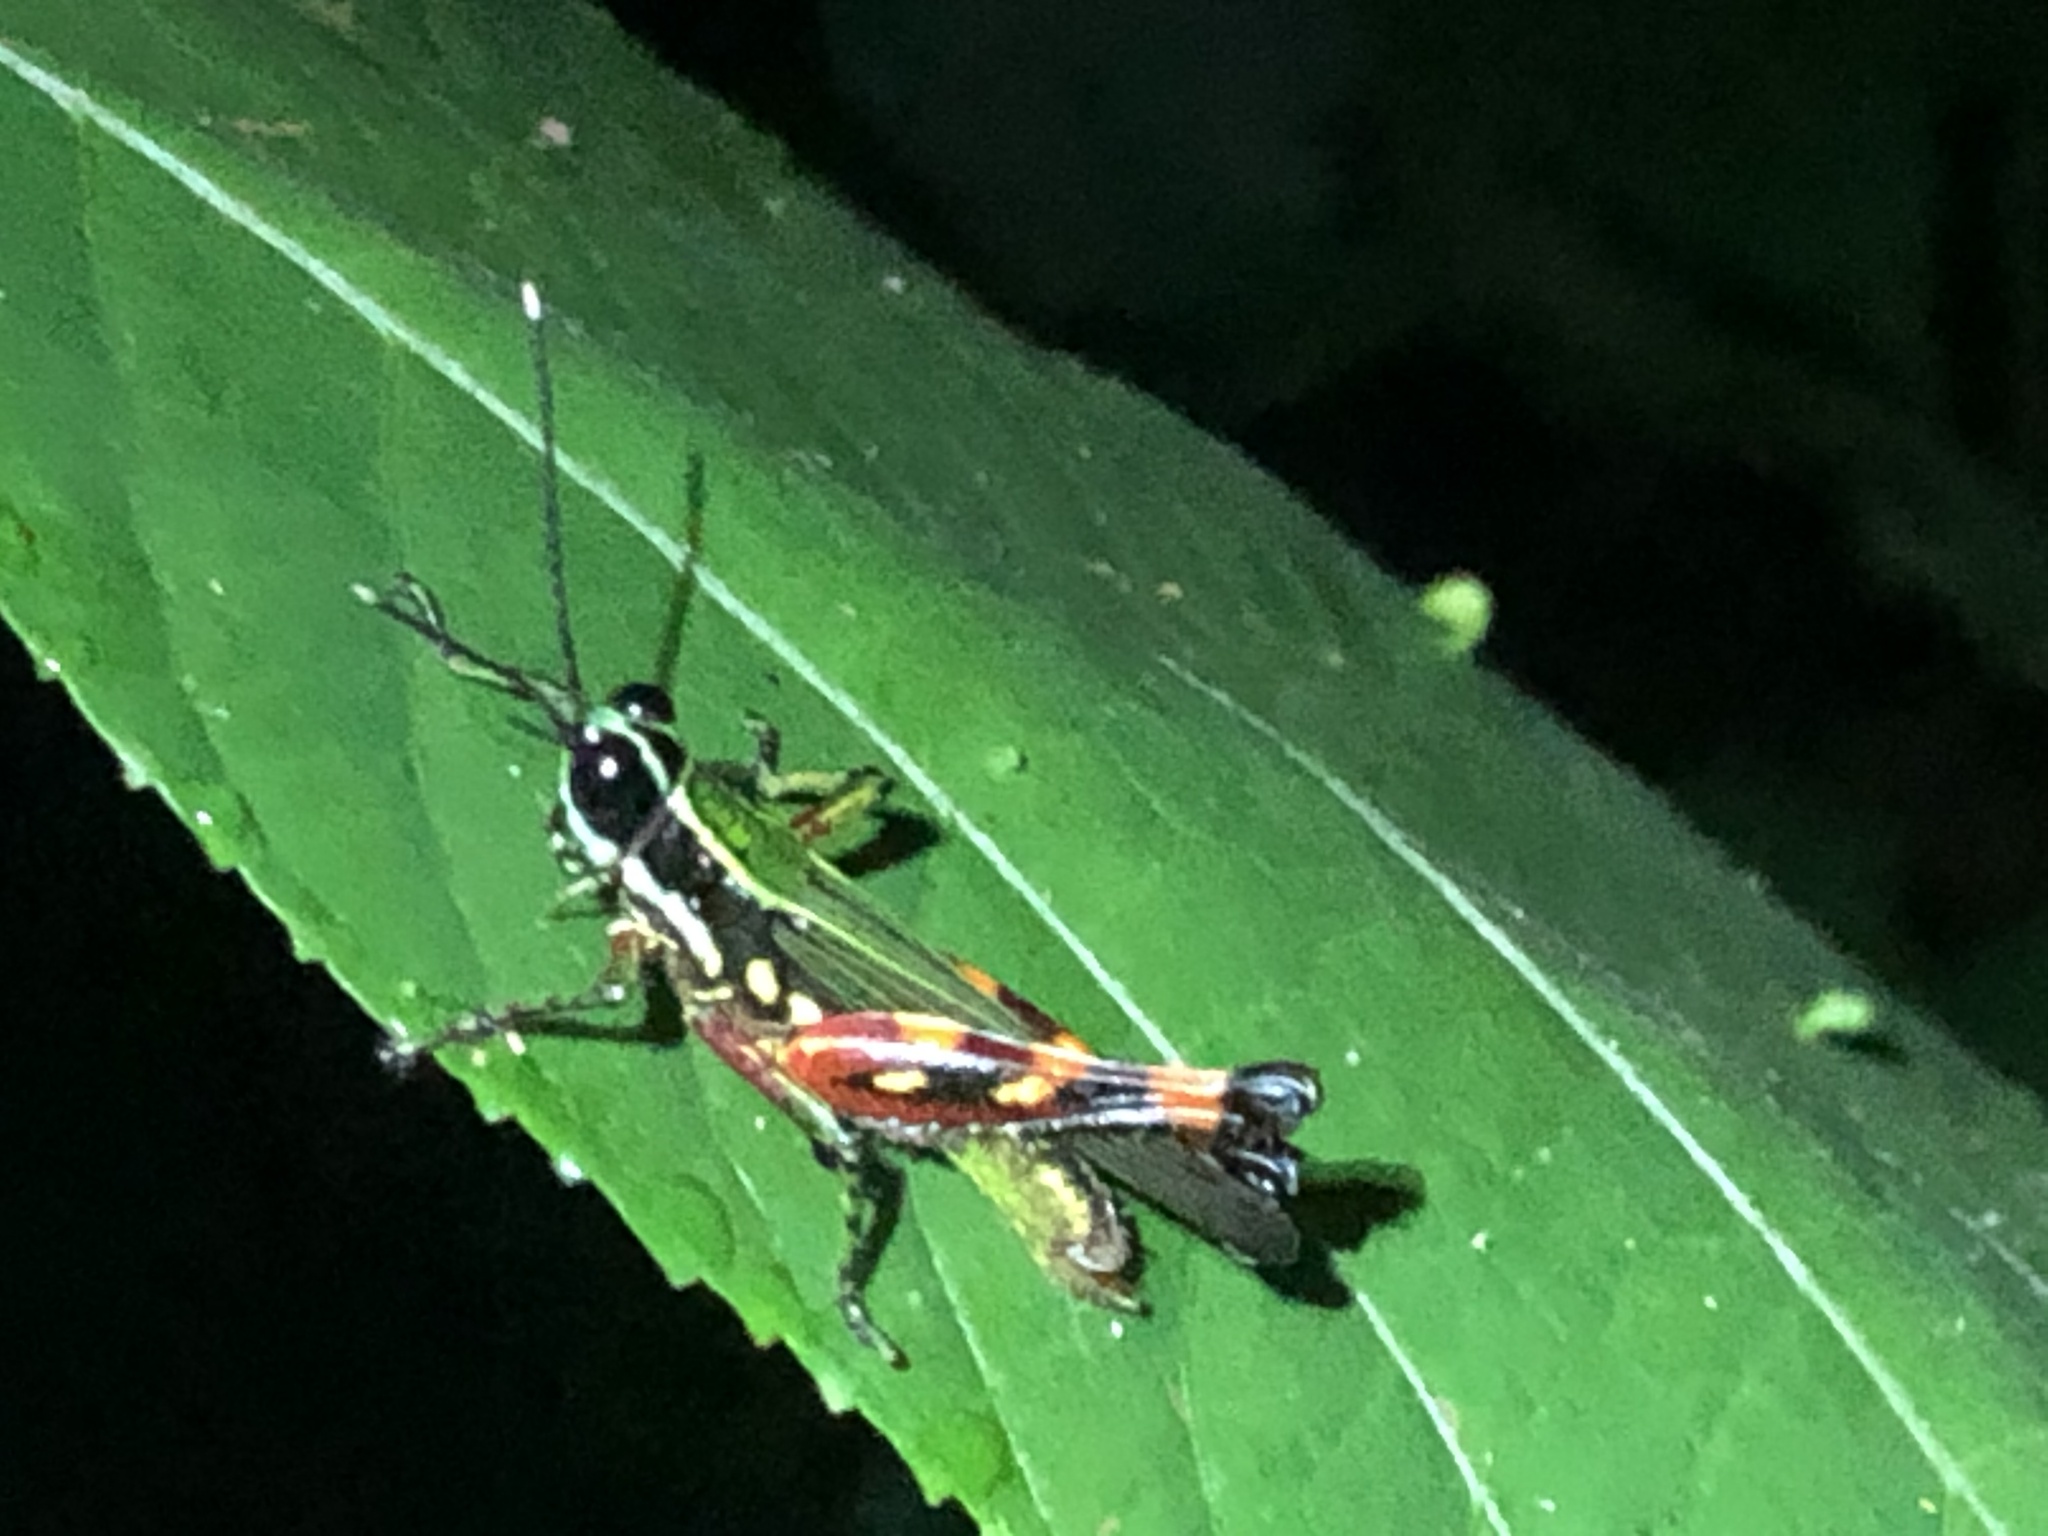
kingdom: Animalia
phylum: Arthropoda
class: Insecta
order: Orthoptera
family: Acrididae
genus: Tetrataenia
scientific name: Tetrataenia surinama
